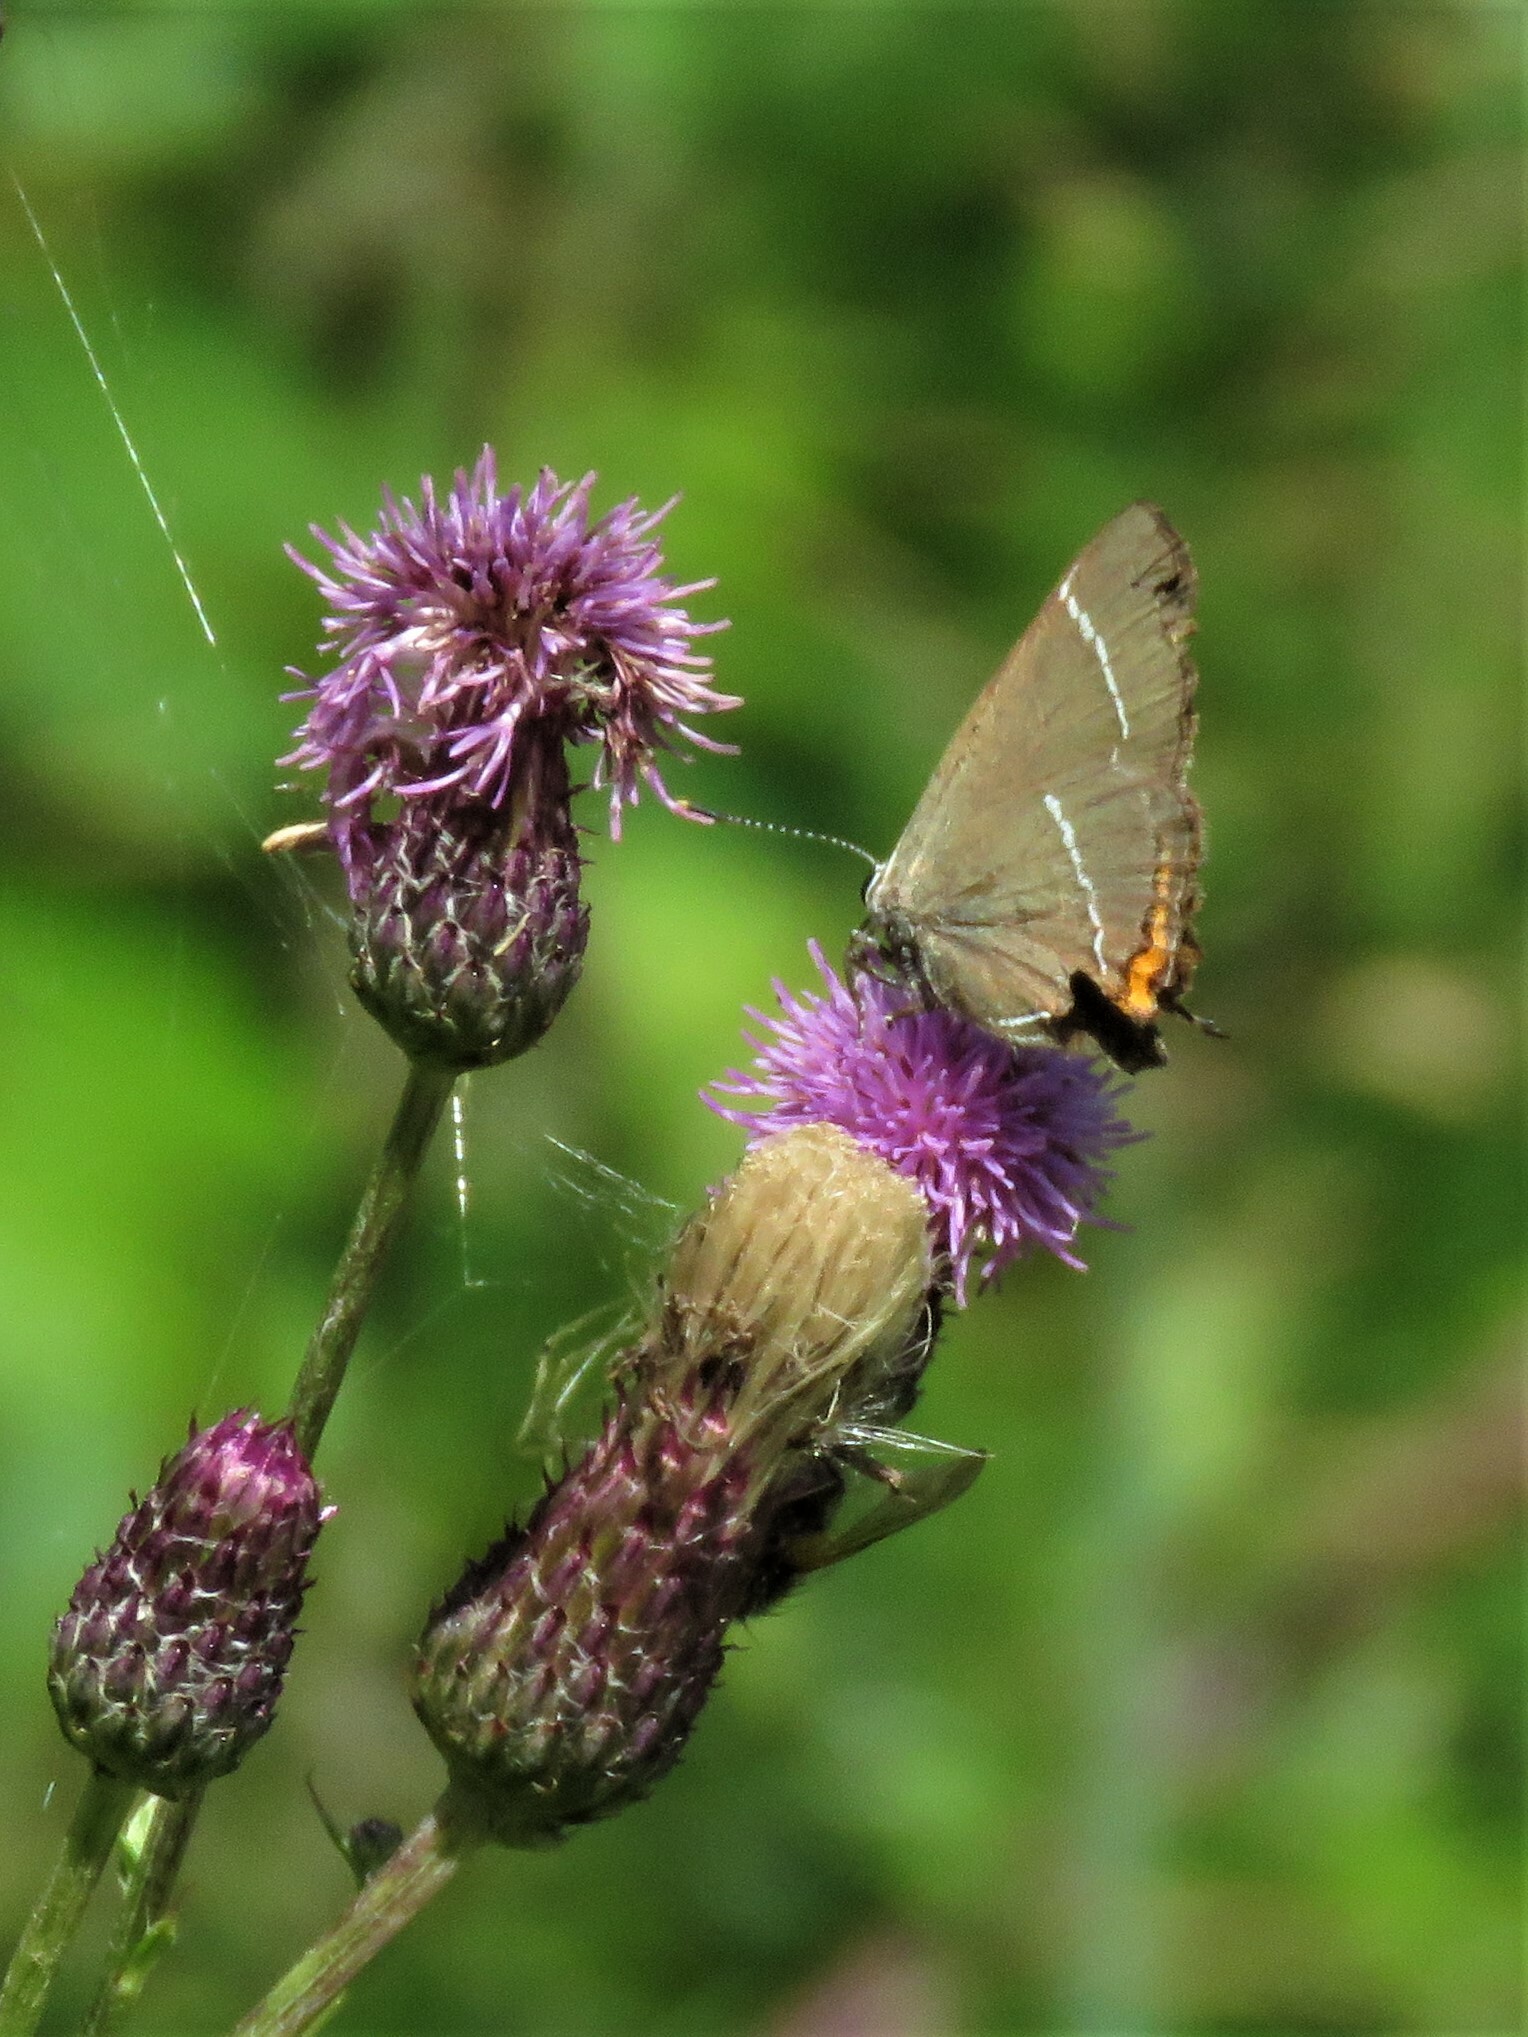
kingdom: Animalia
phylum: Arthropoda
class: Insecta
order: Lepidoptera
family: Lycaenidae
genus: Satyrium
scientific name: Satyrium w-album
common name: White-letter hairstreak
